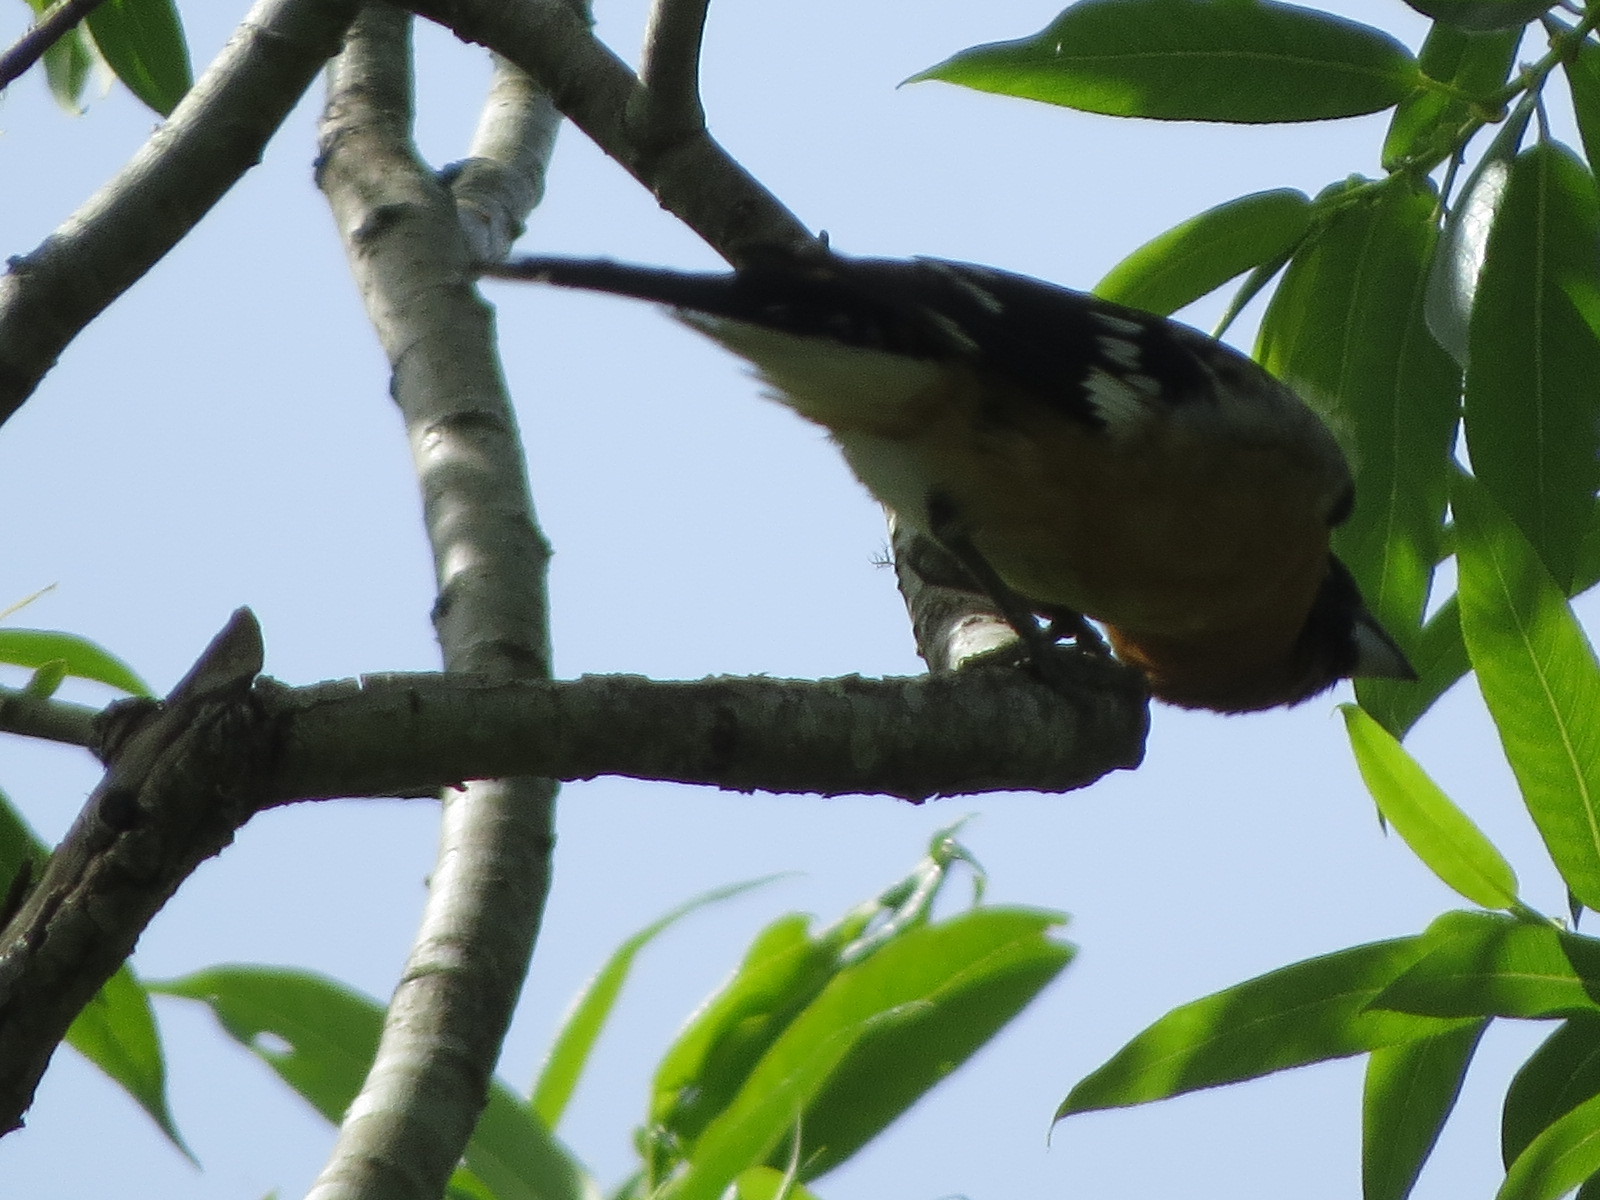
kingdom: Animalia
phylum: Chordata
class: Aves
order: Passeriformes
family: Cardinalidae
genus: Pheucticus
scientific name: Pheucticus melanocephalus
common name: Black-headed grosbeak
